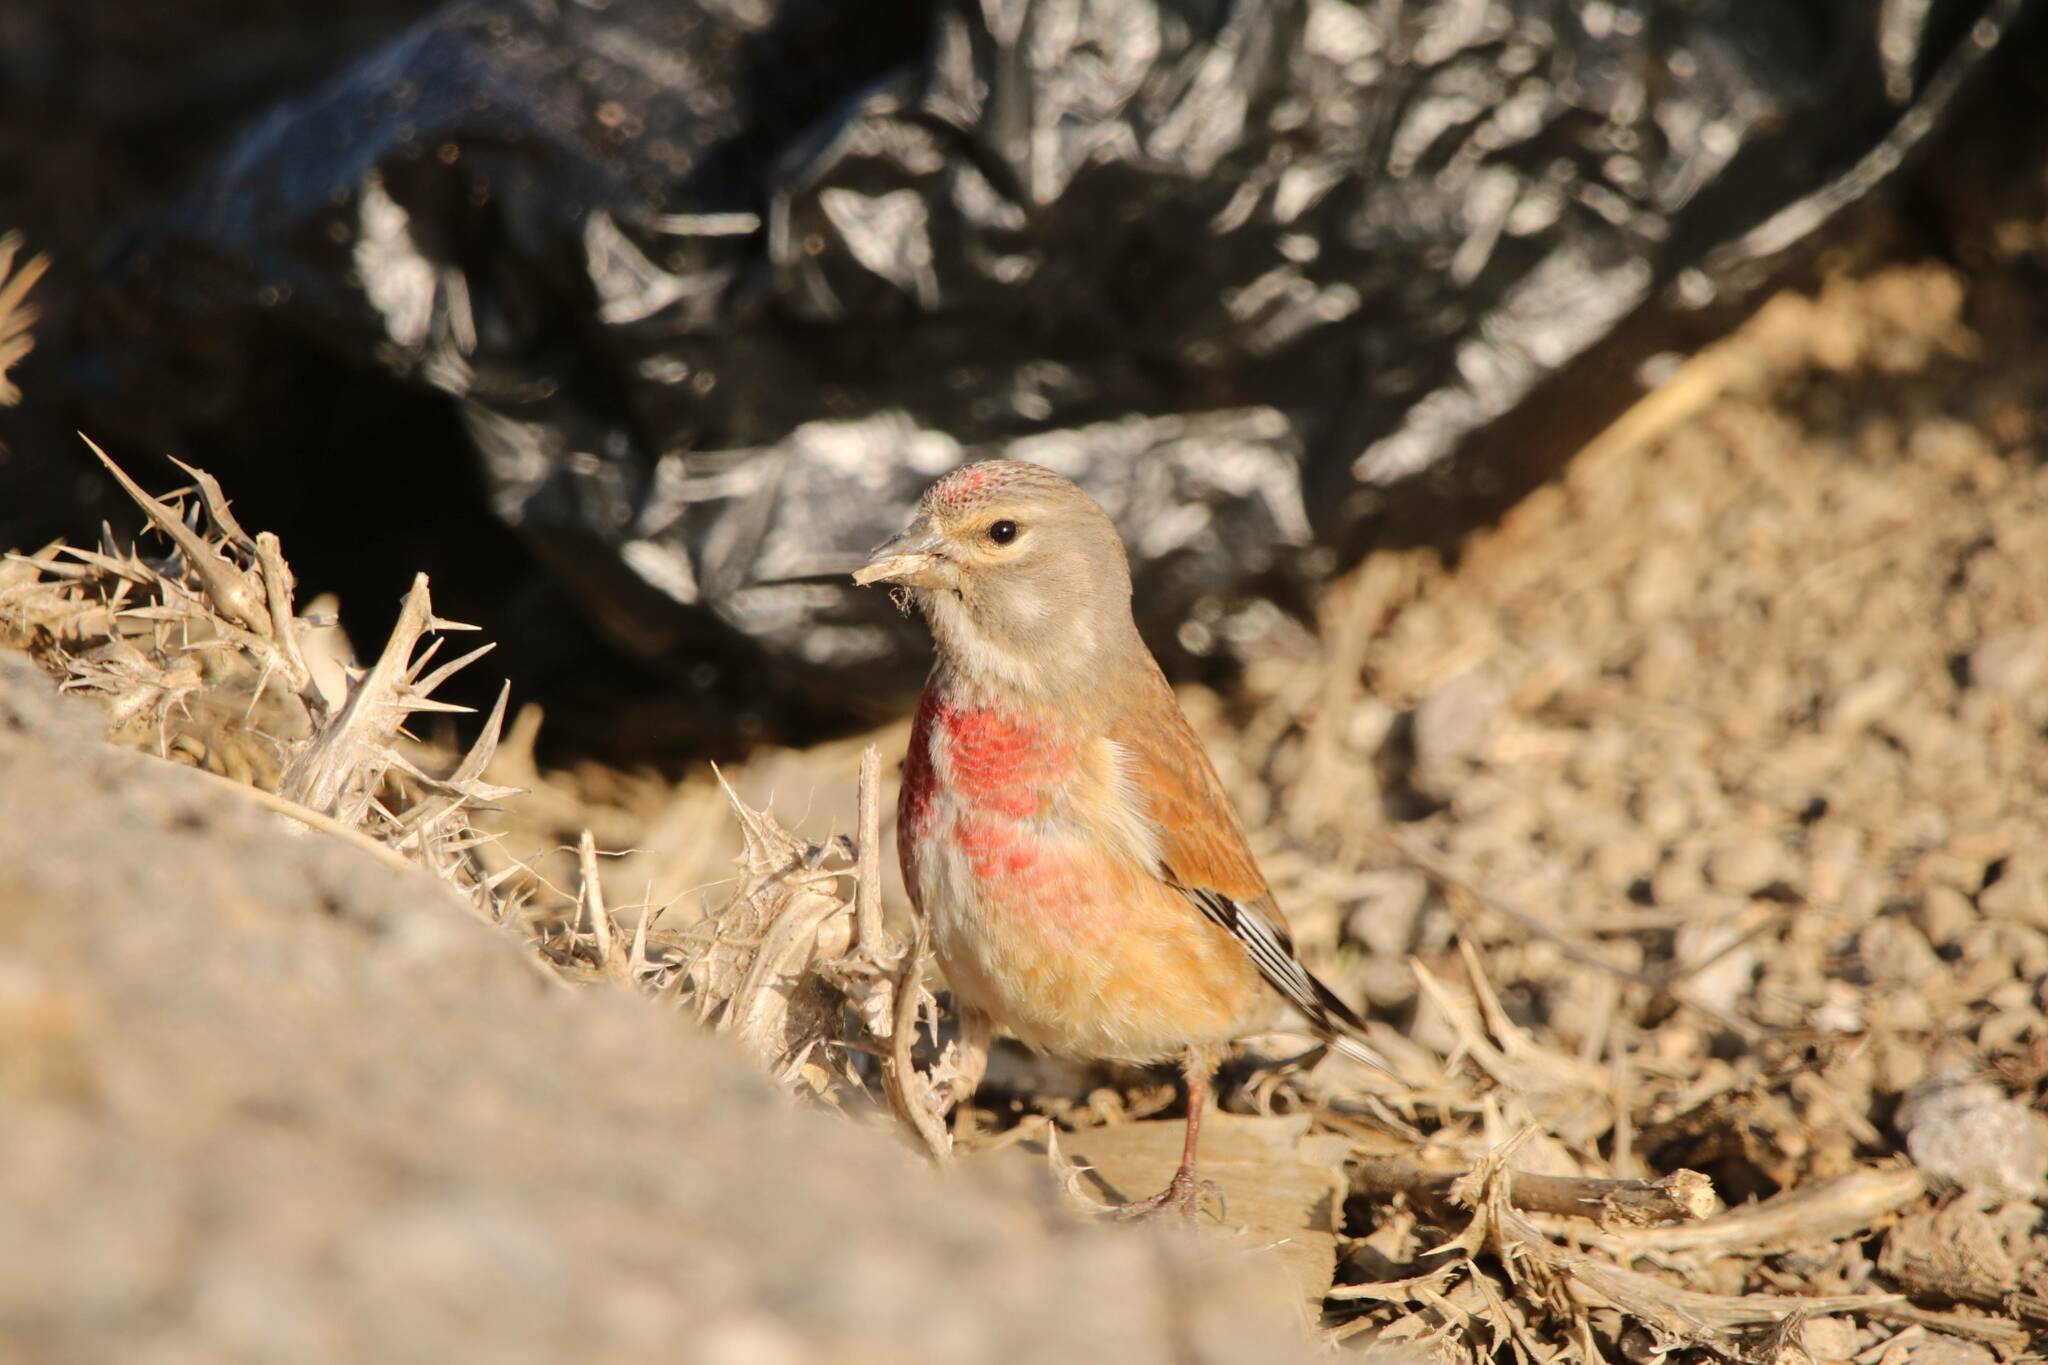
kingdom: Animalia
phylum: Chordata
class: Aves
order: Passeriformes
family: Fringillidae
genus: Linaria
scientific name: Linaria cannabina
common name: Common linnet
